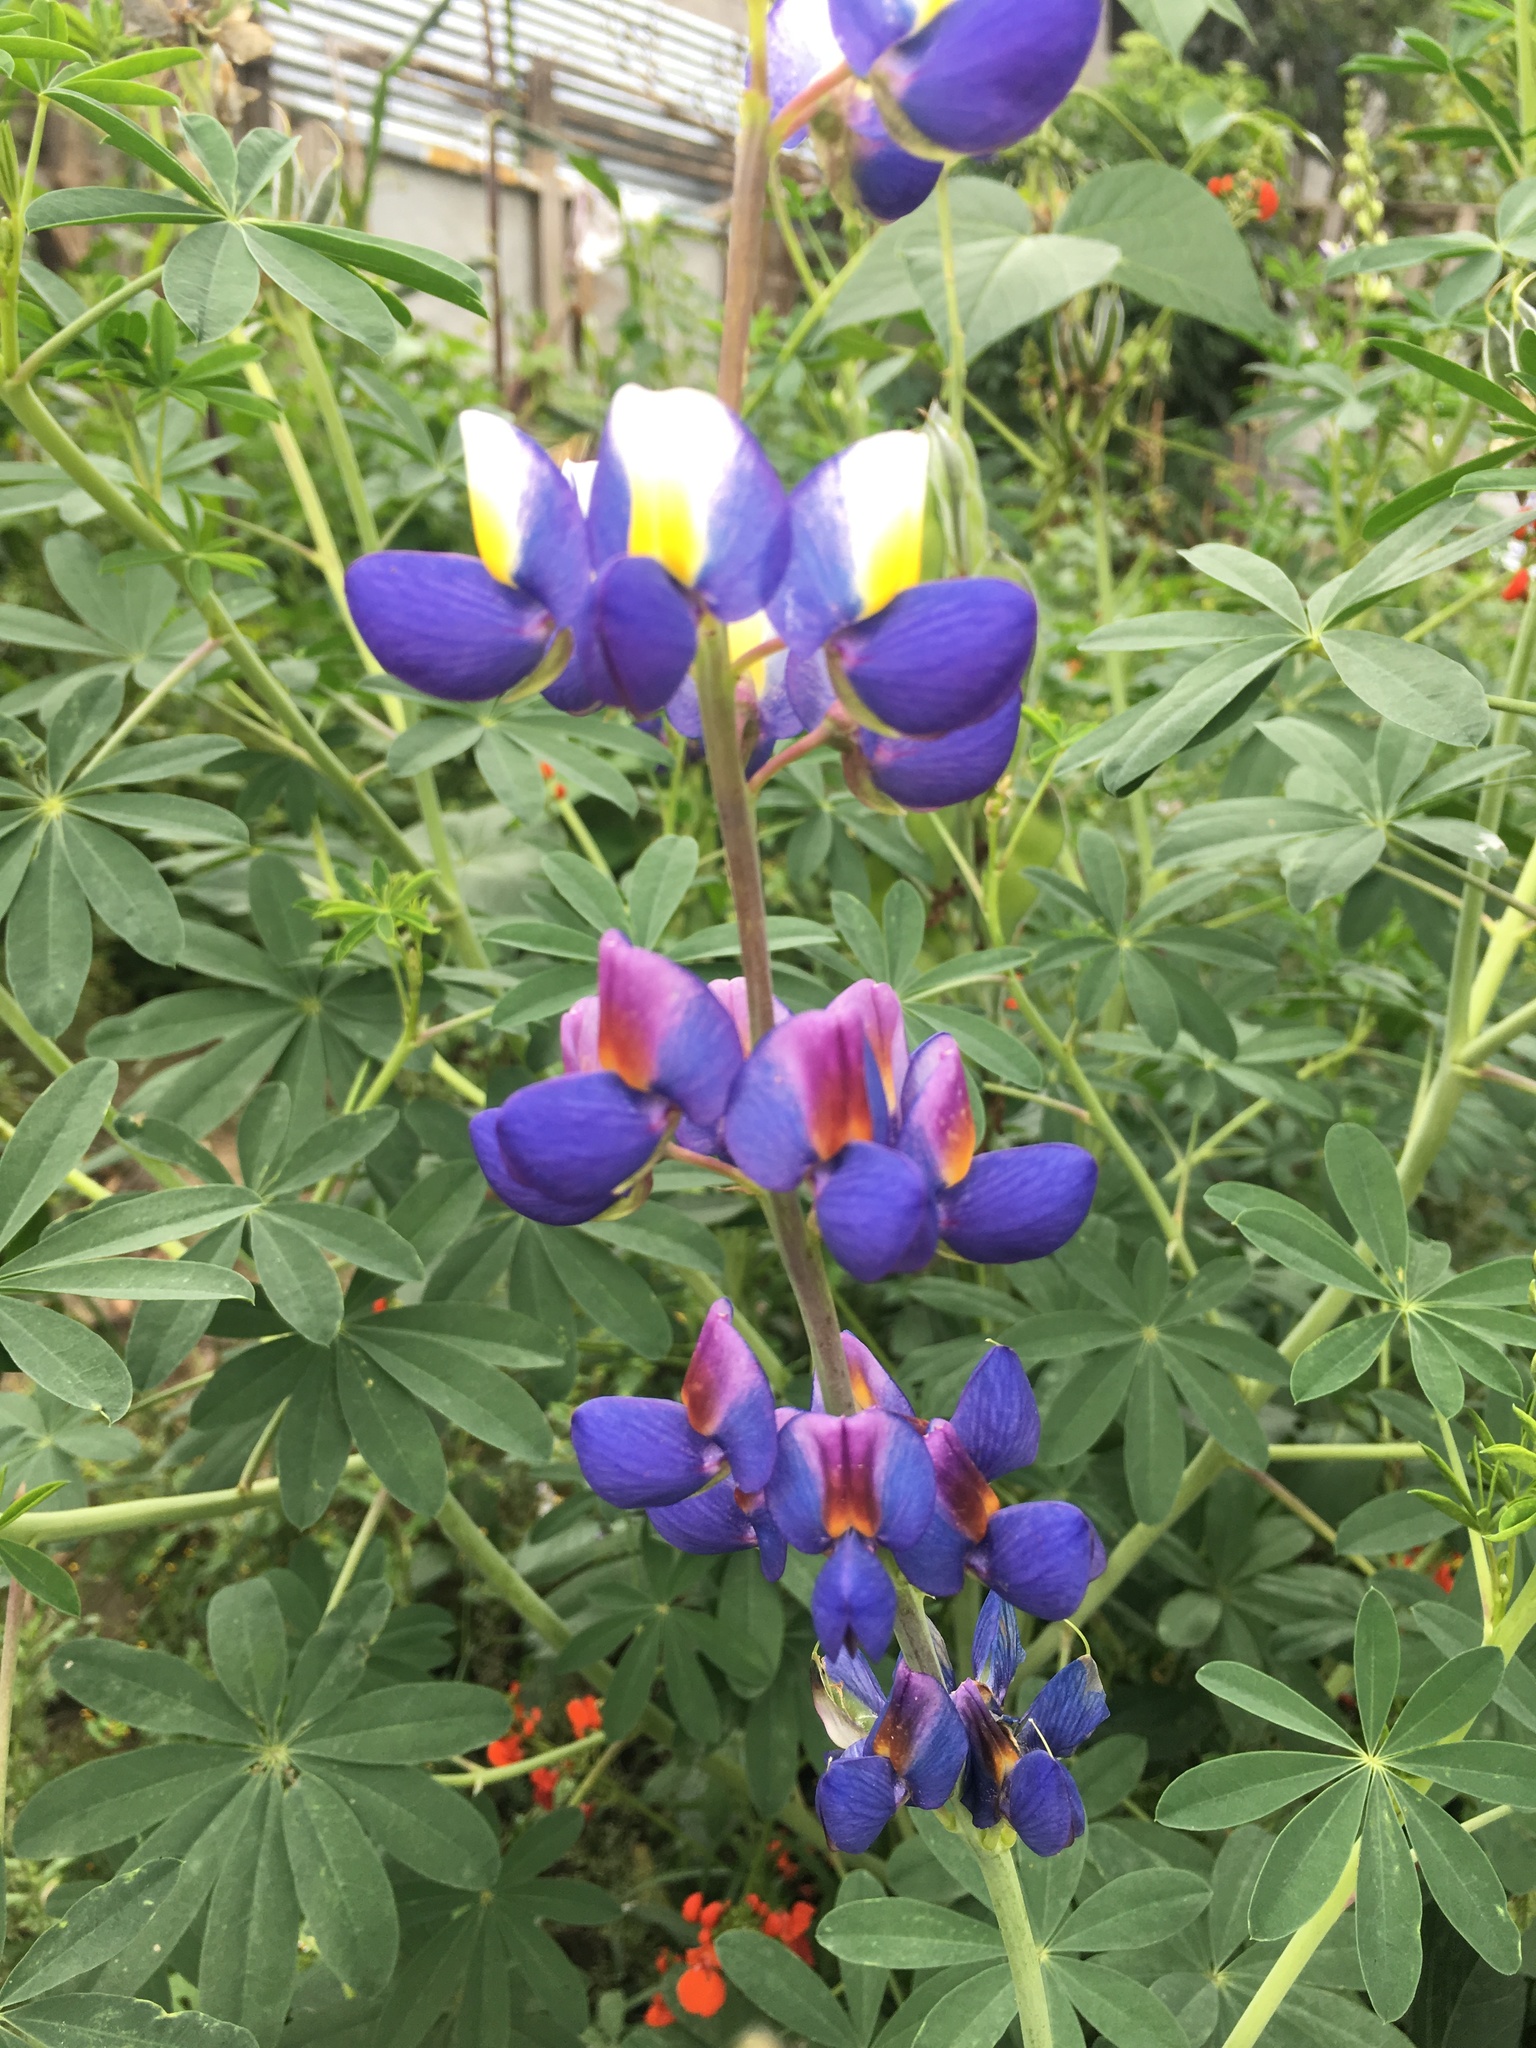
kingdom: Plantae
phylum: Tracheophyta
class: Magnoliopsida
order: Fabales
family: Fabaceae
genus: Lupinus
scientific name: Lupinus pubescens
